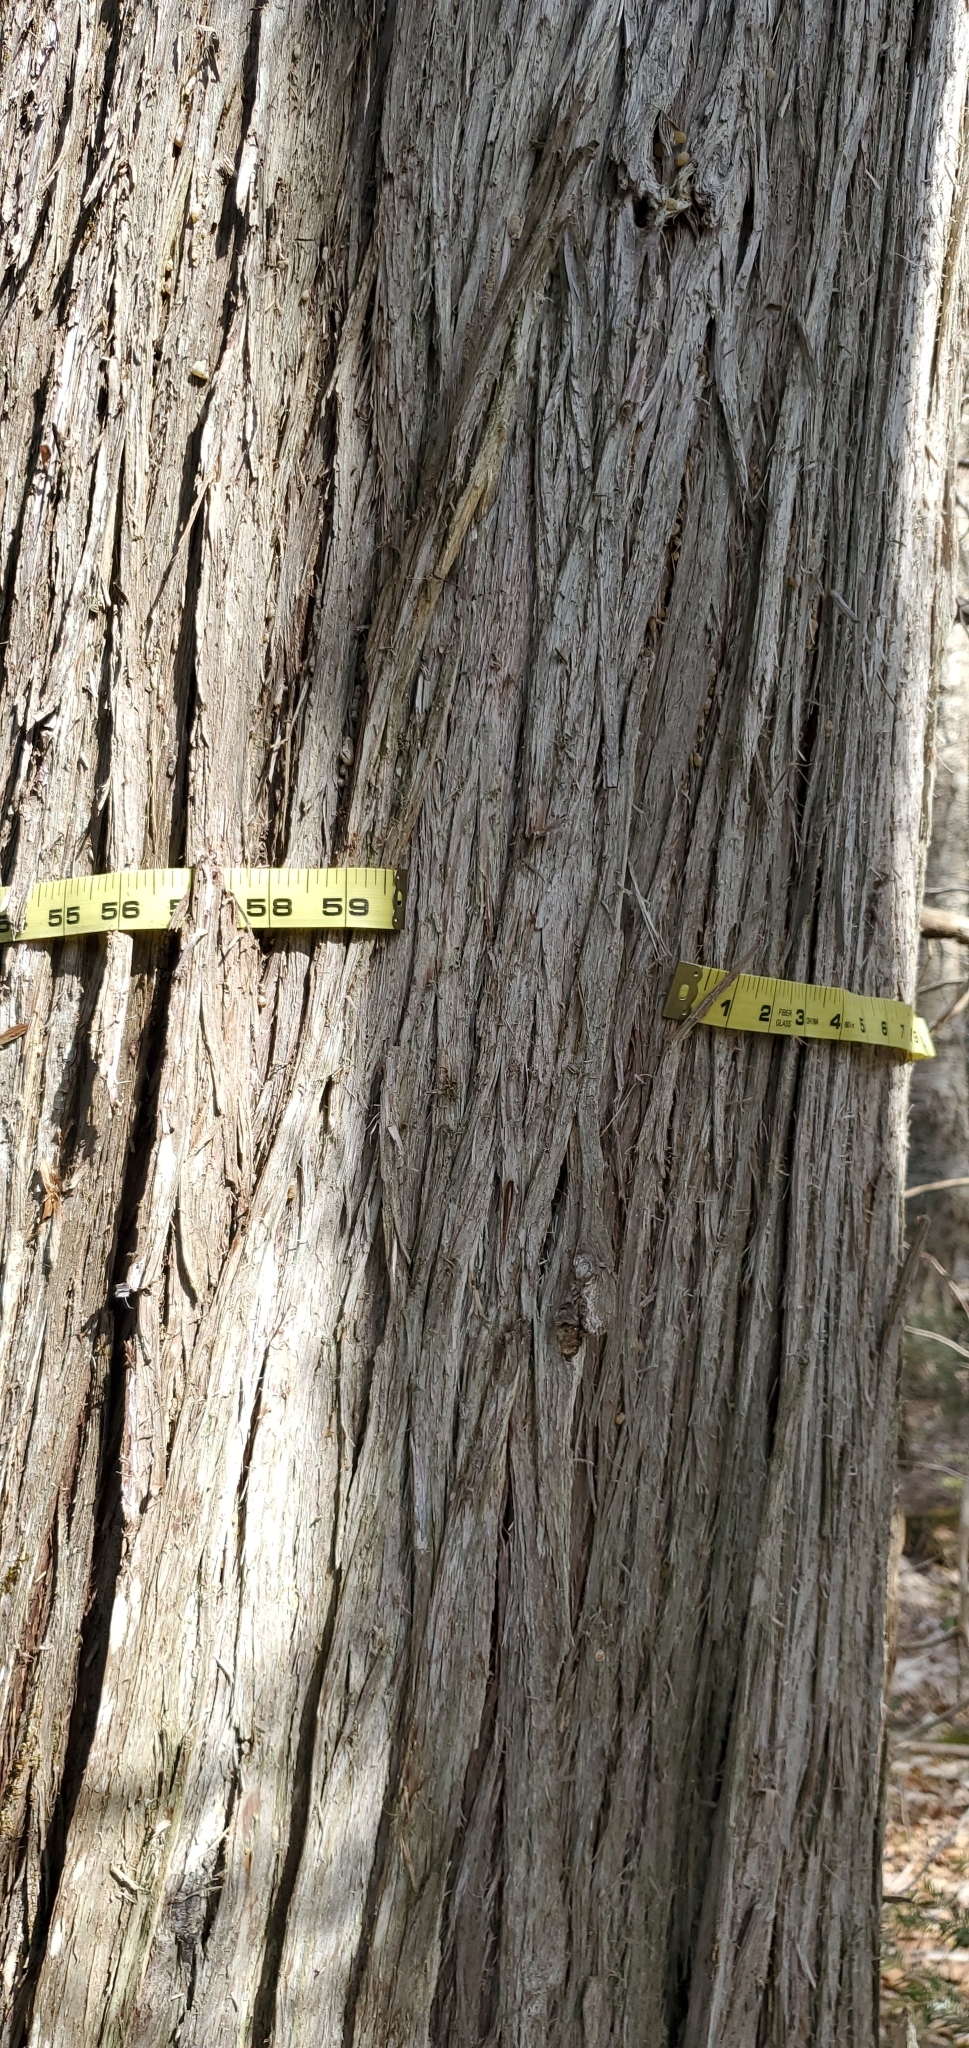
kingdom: Plantae
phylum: Tracheophyta
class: Pinopsida
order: Pinales
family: Cupressaceae
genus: Thuja
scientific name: Thuja occidentalis
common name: Northern white-cedar
